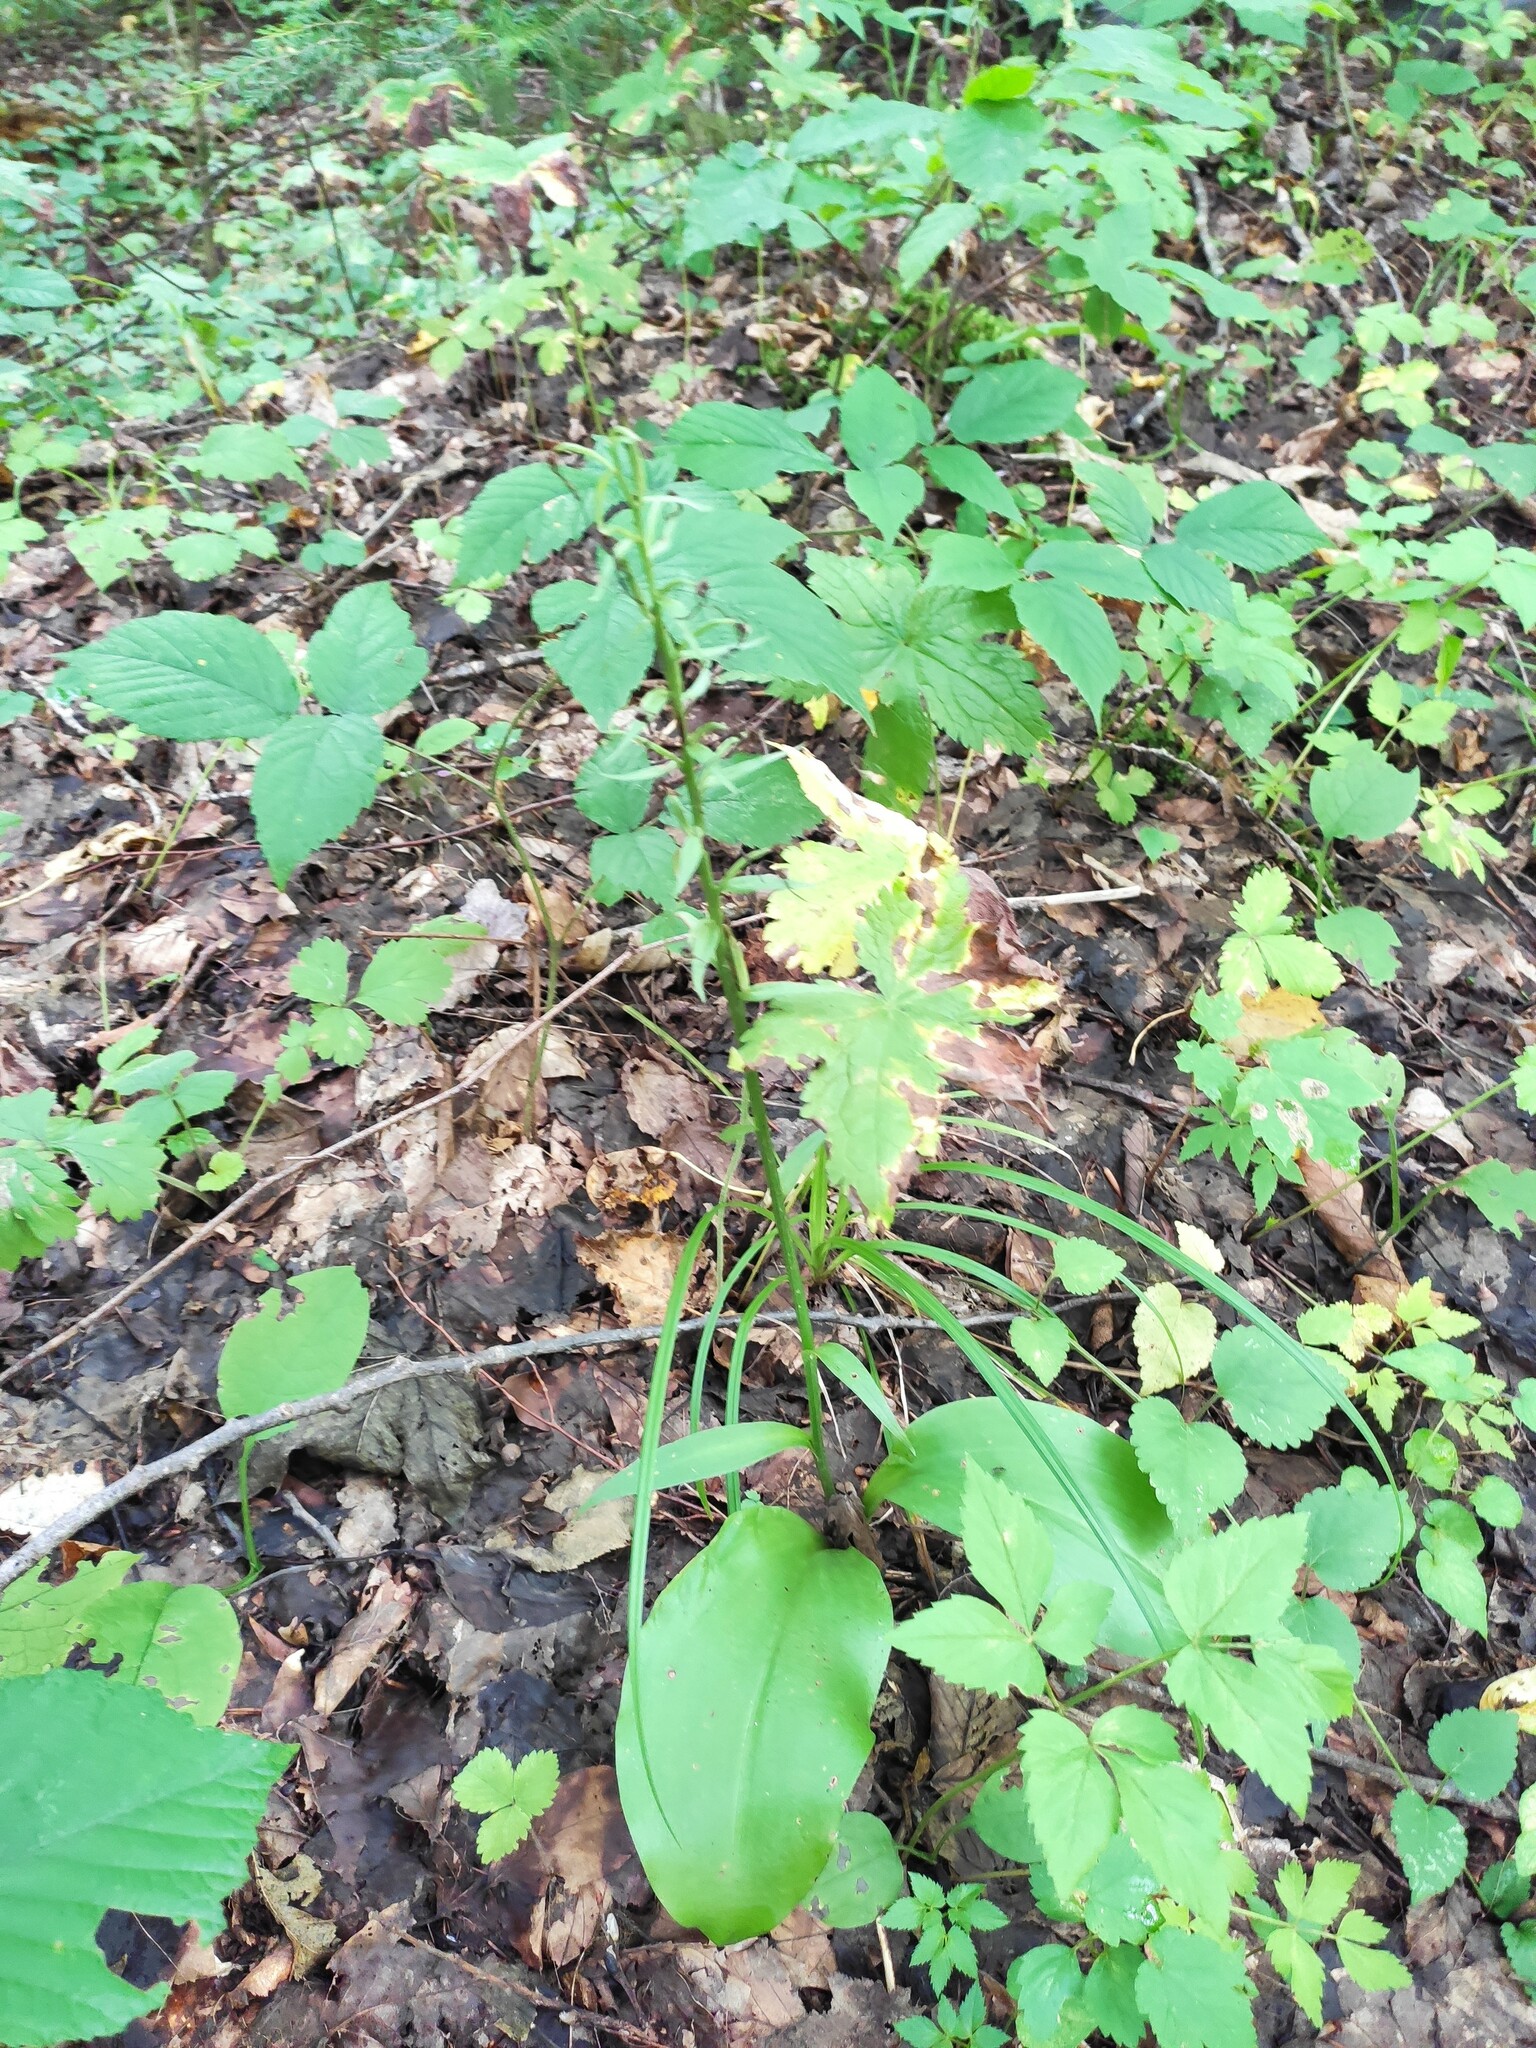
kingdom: Plantae
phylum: Tracheophyta
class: Liliopsida
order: Asparagales
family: Orchidaceae
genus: Platanthera
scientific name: Platanthera
